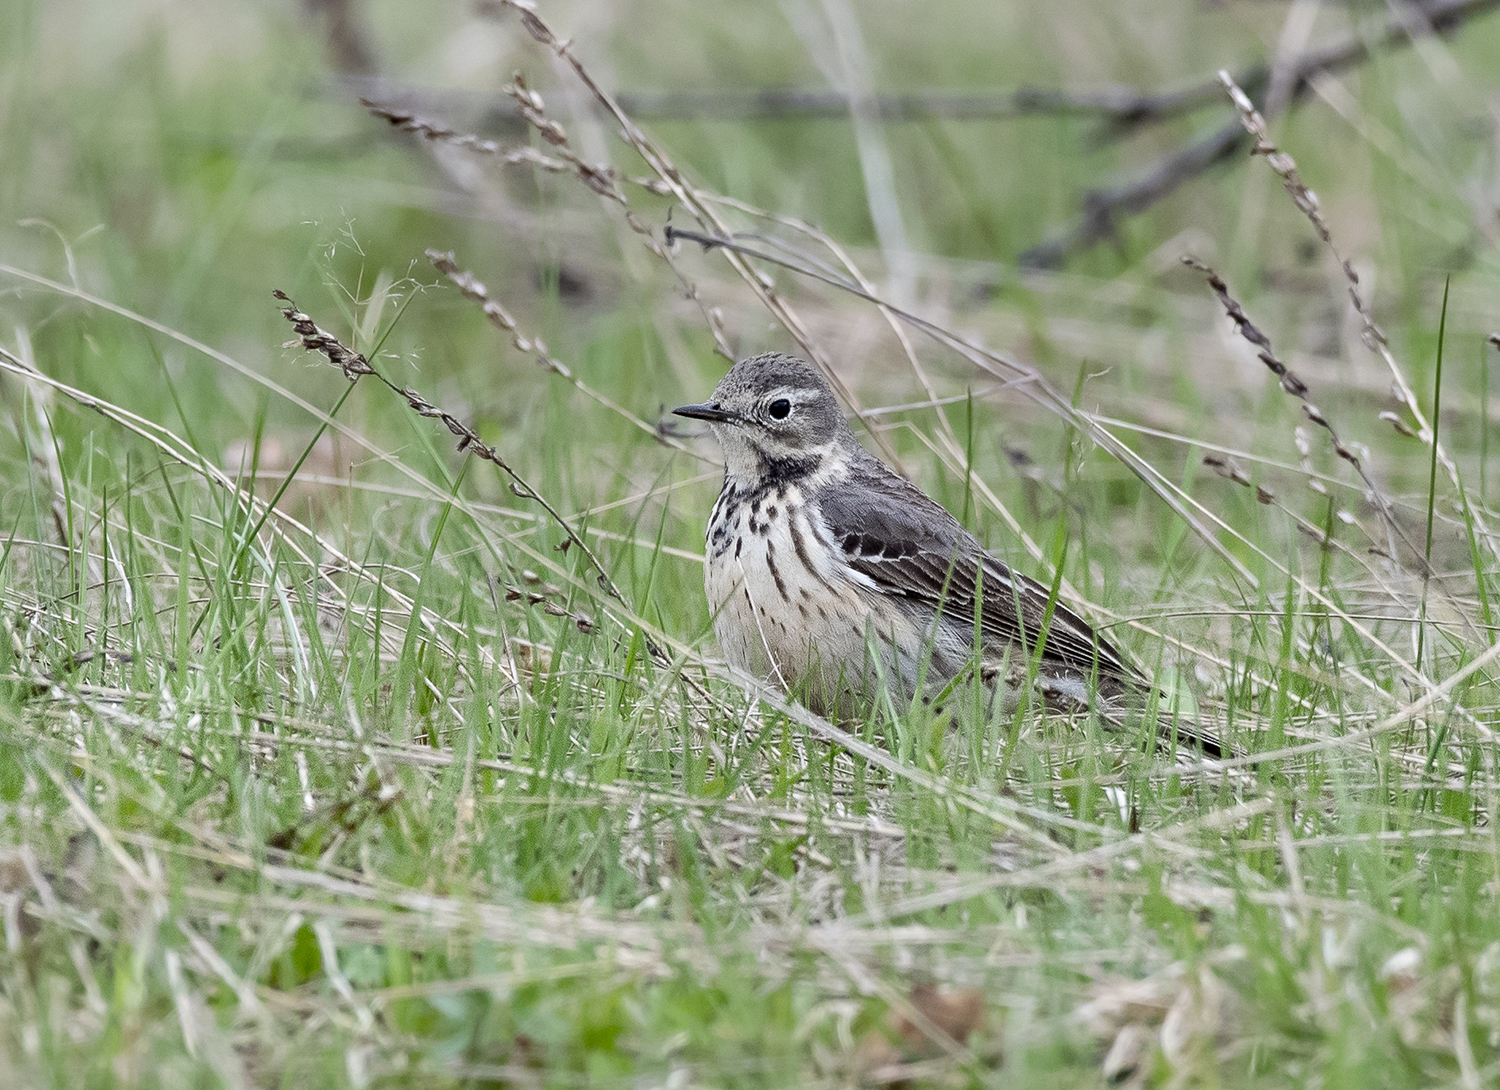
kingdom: Animalia
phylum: Chordata
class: Aves
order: Passeriformes
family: Motacillidae
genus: Anthus
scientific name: Anthus rubescens
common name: Buff-bellied pipit
